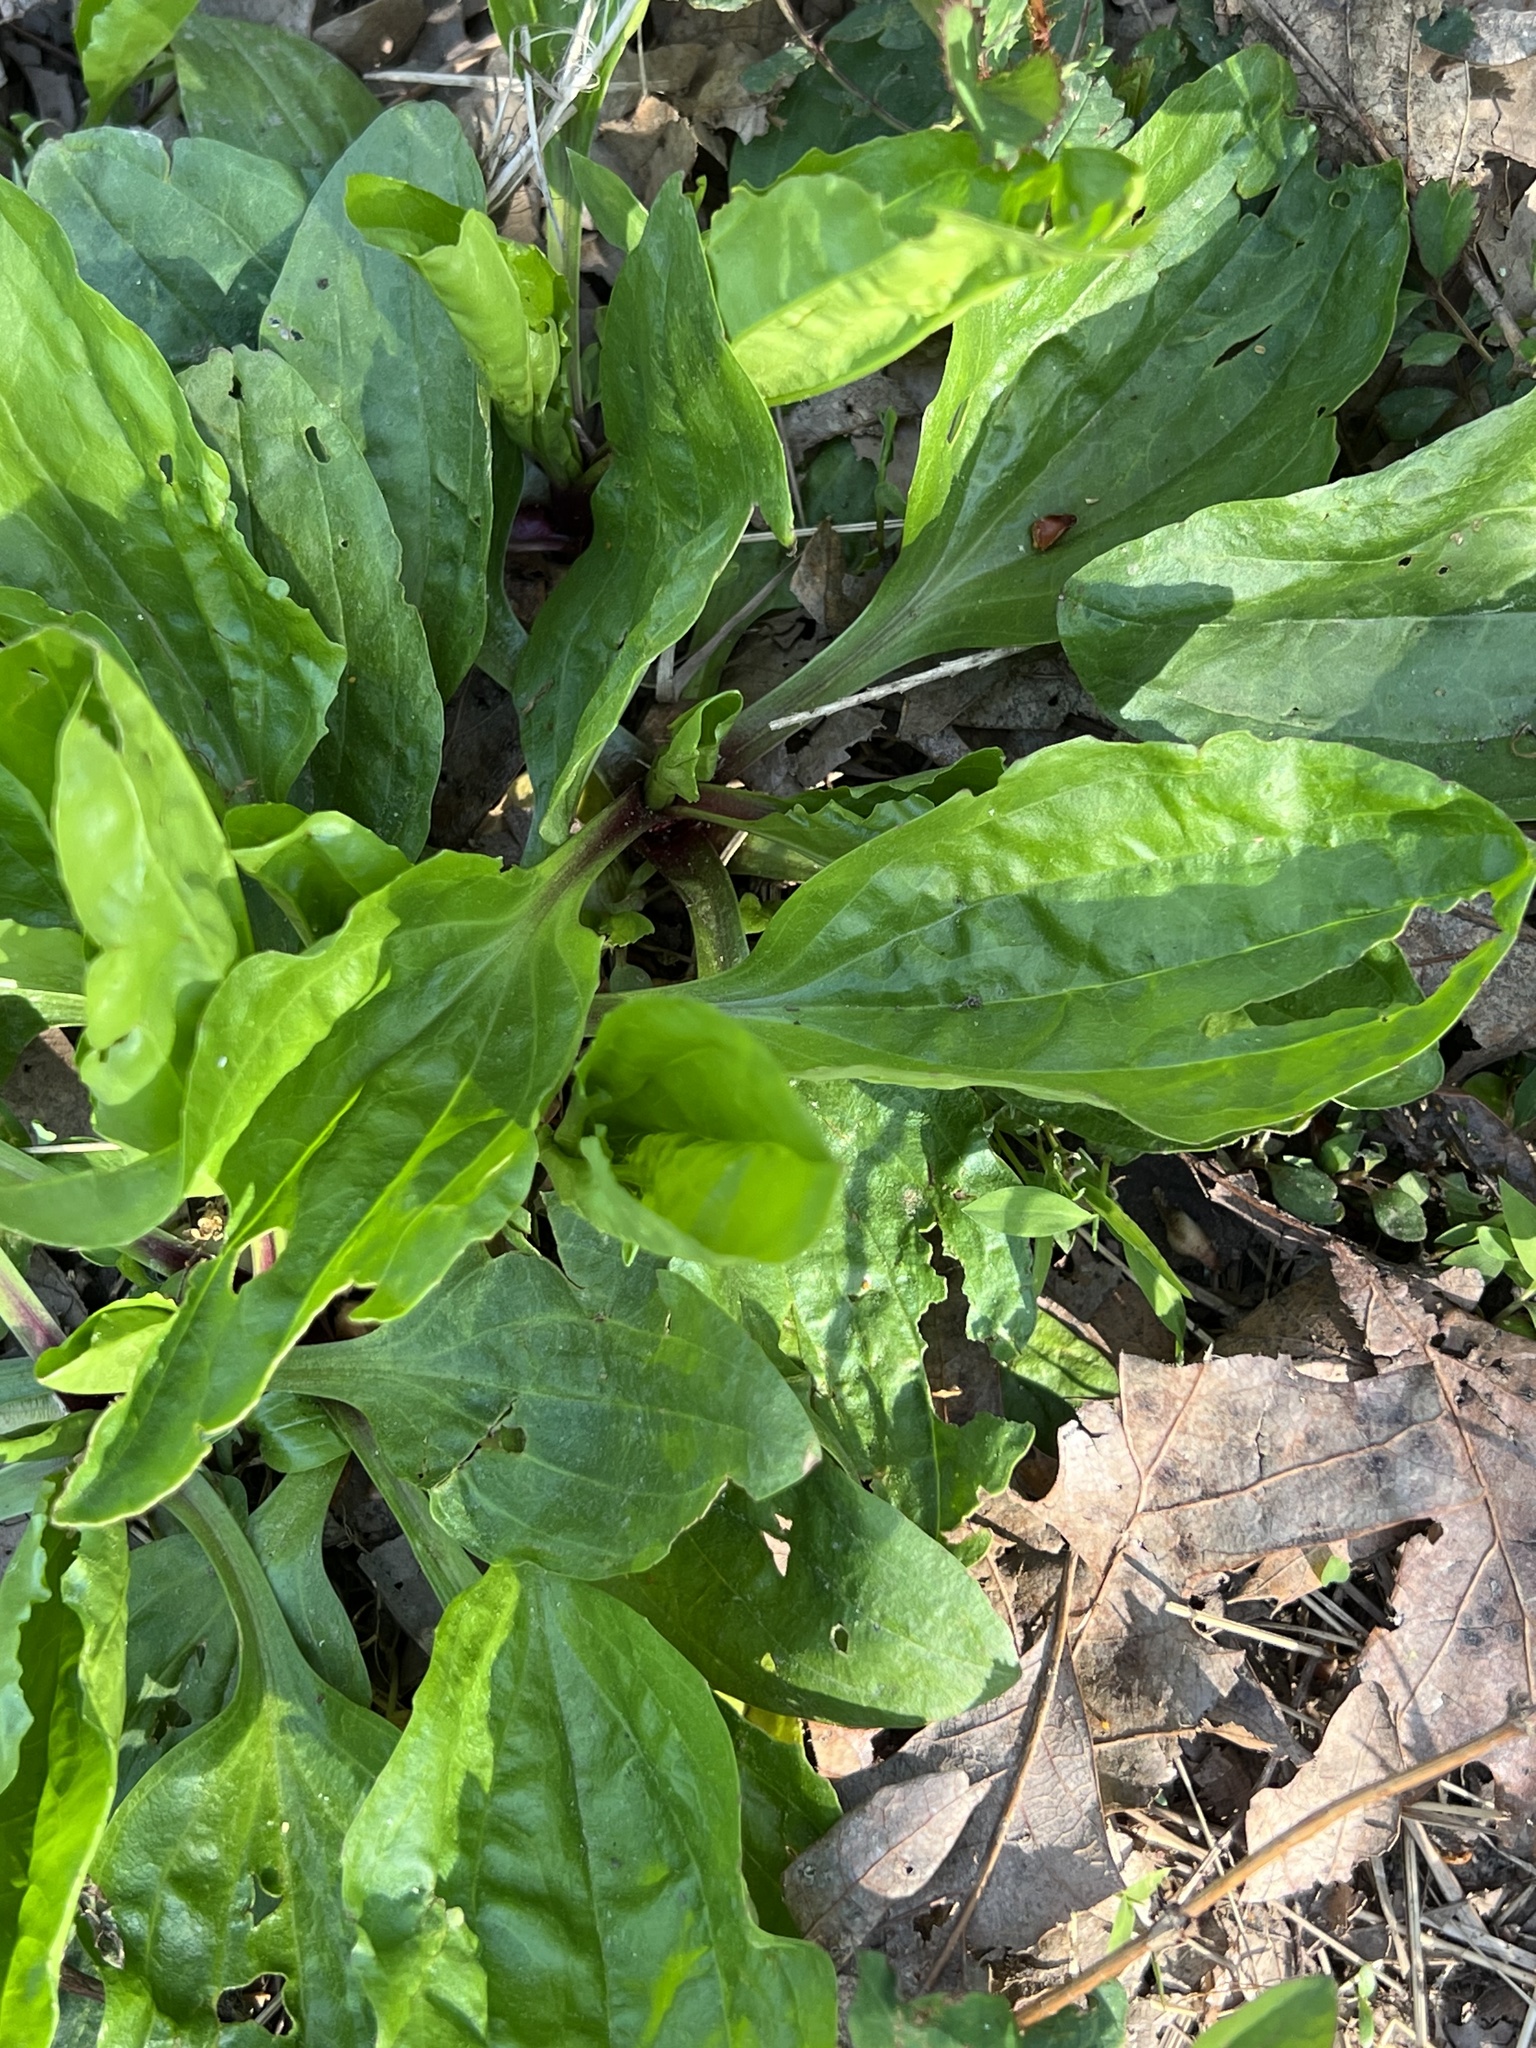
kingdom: Plantae
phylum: Tracheophyta
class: Magnoliopsida
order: Lamiales
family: Plantaginaceae
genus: Plantago
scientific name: Plantago rugelii
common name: American plantain
